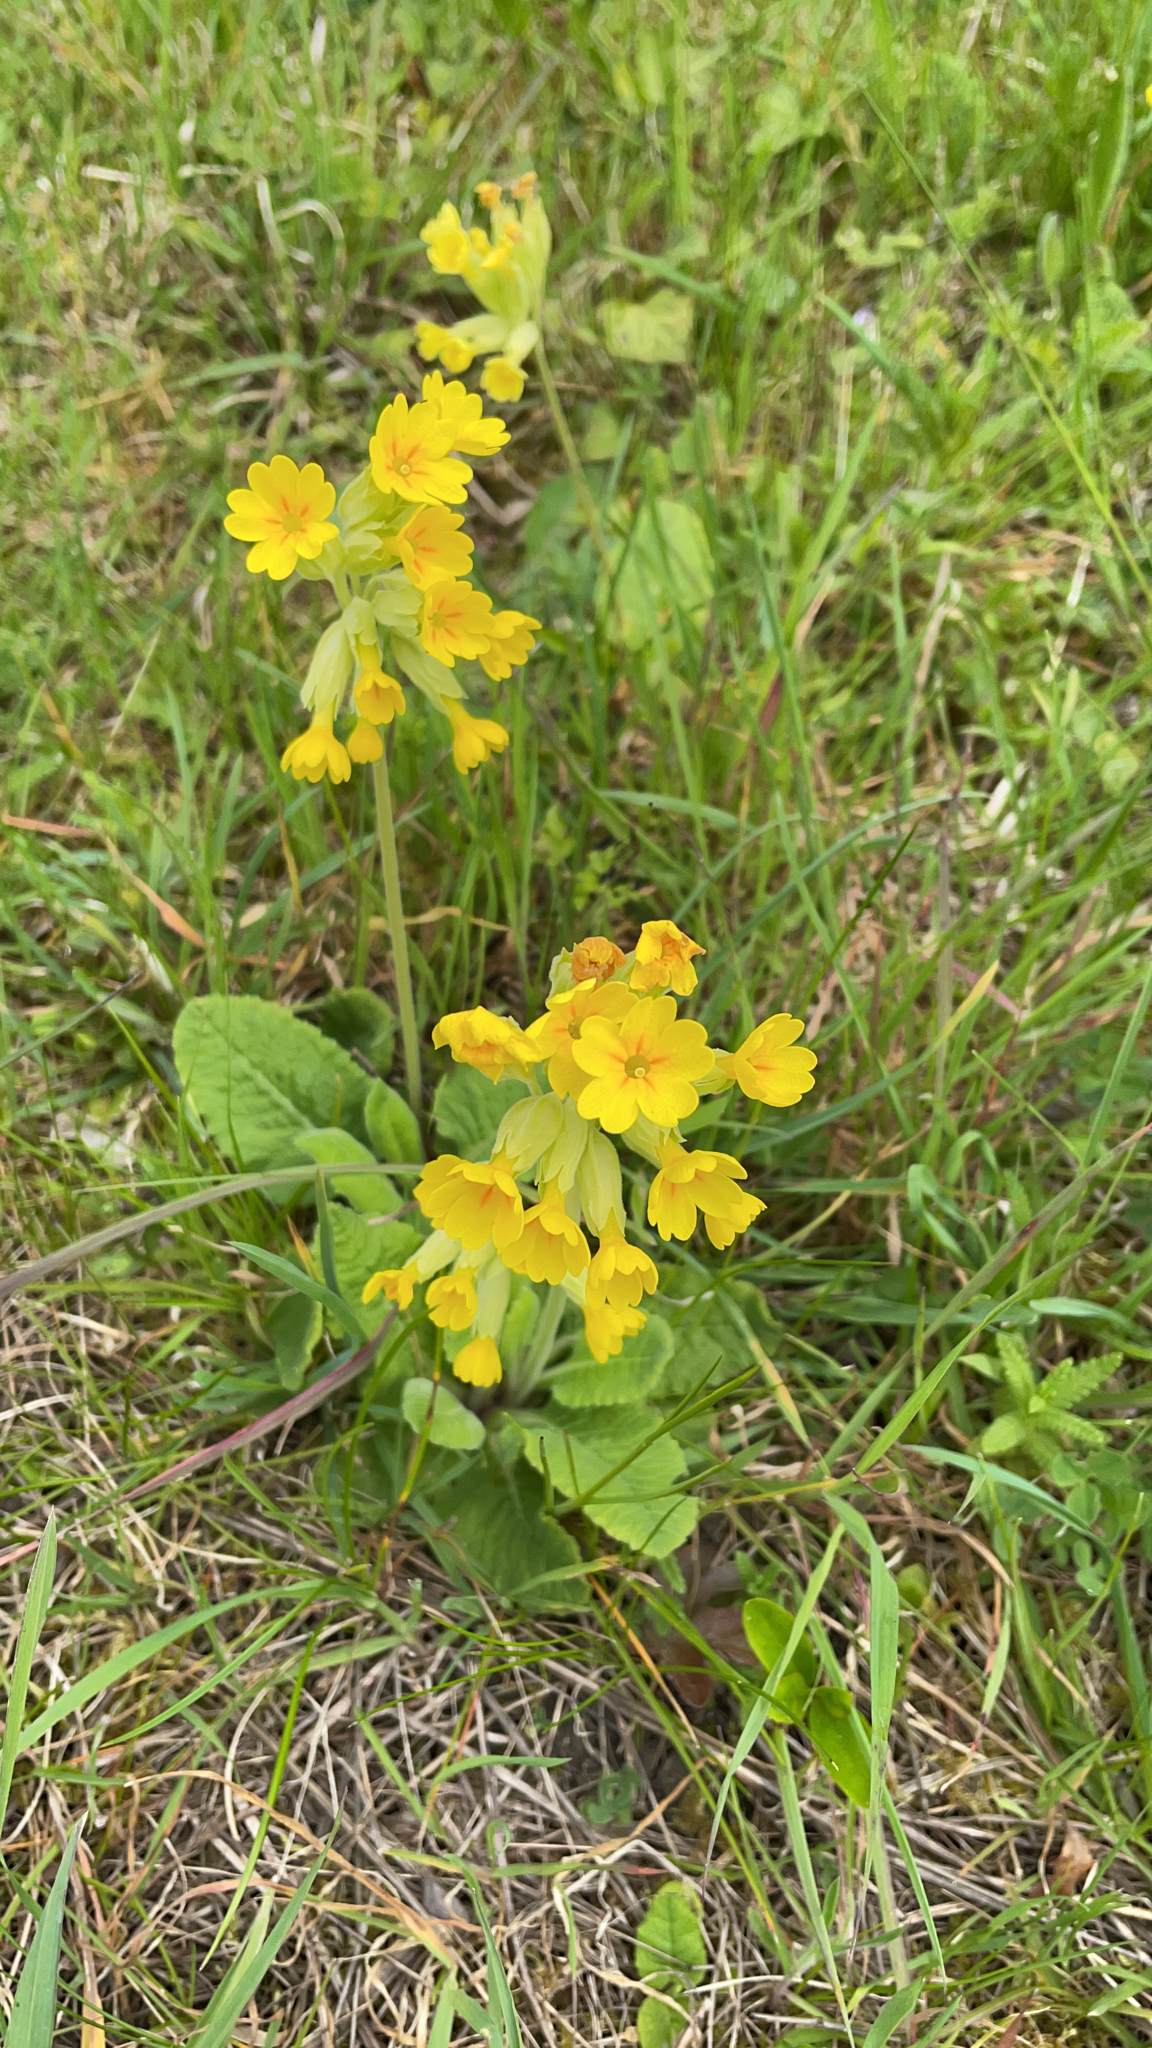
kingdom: Plantae
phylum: Tracheophyta
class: Magnoliopsida
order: Ericales
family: Primulaceae
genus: Primula
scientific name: Primula veris
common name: Cowslip
